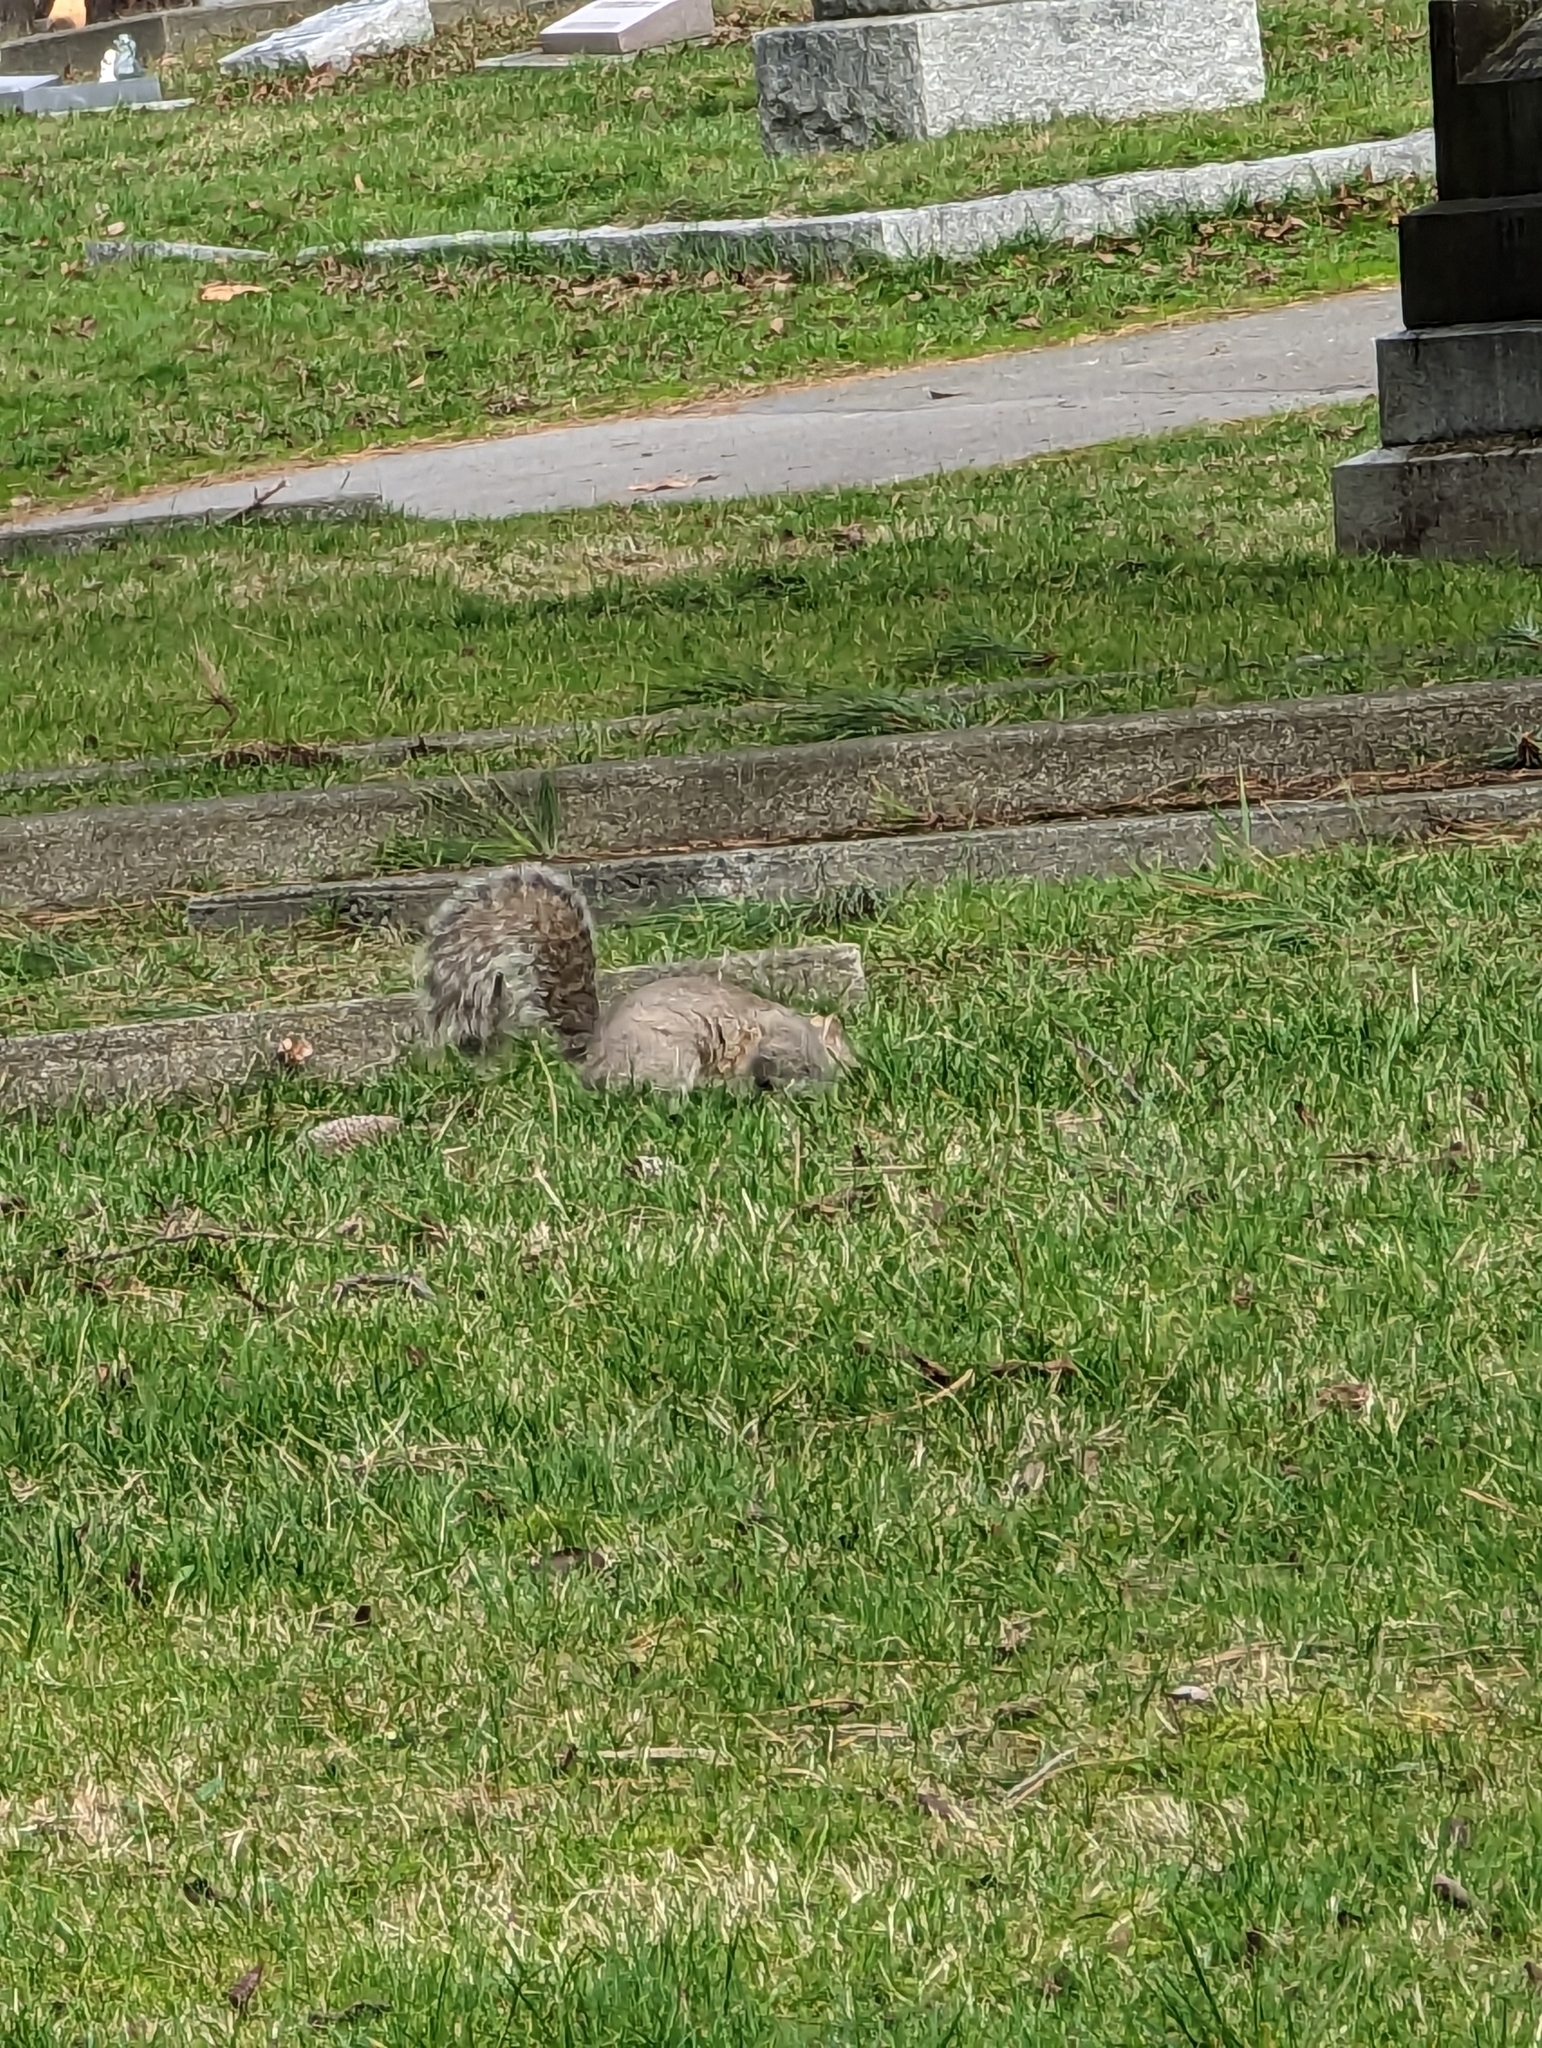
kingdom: Animalia
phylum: Chordata
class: Mammalia
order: Rodentia
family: Sciuridae
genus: Sciurus
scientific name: Sciurus carolinensis
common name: Eastern gray squirrel
